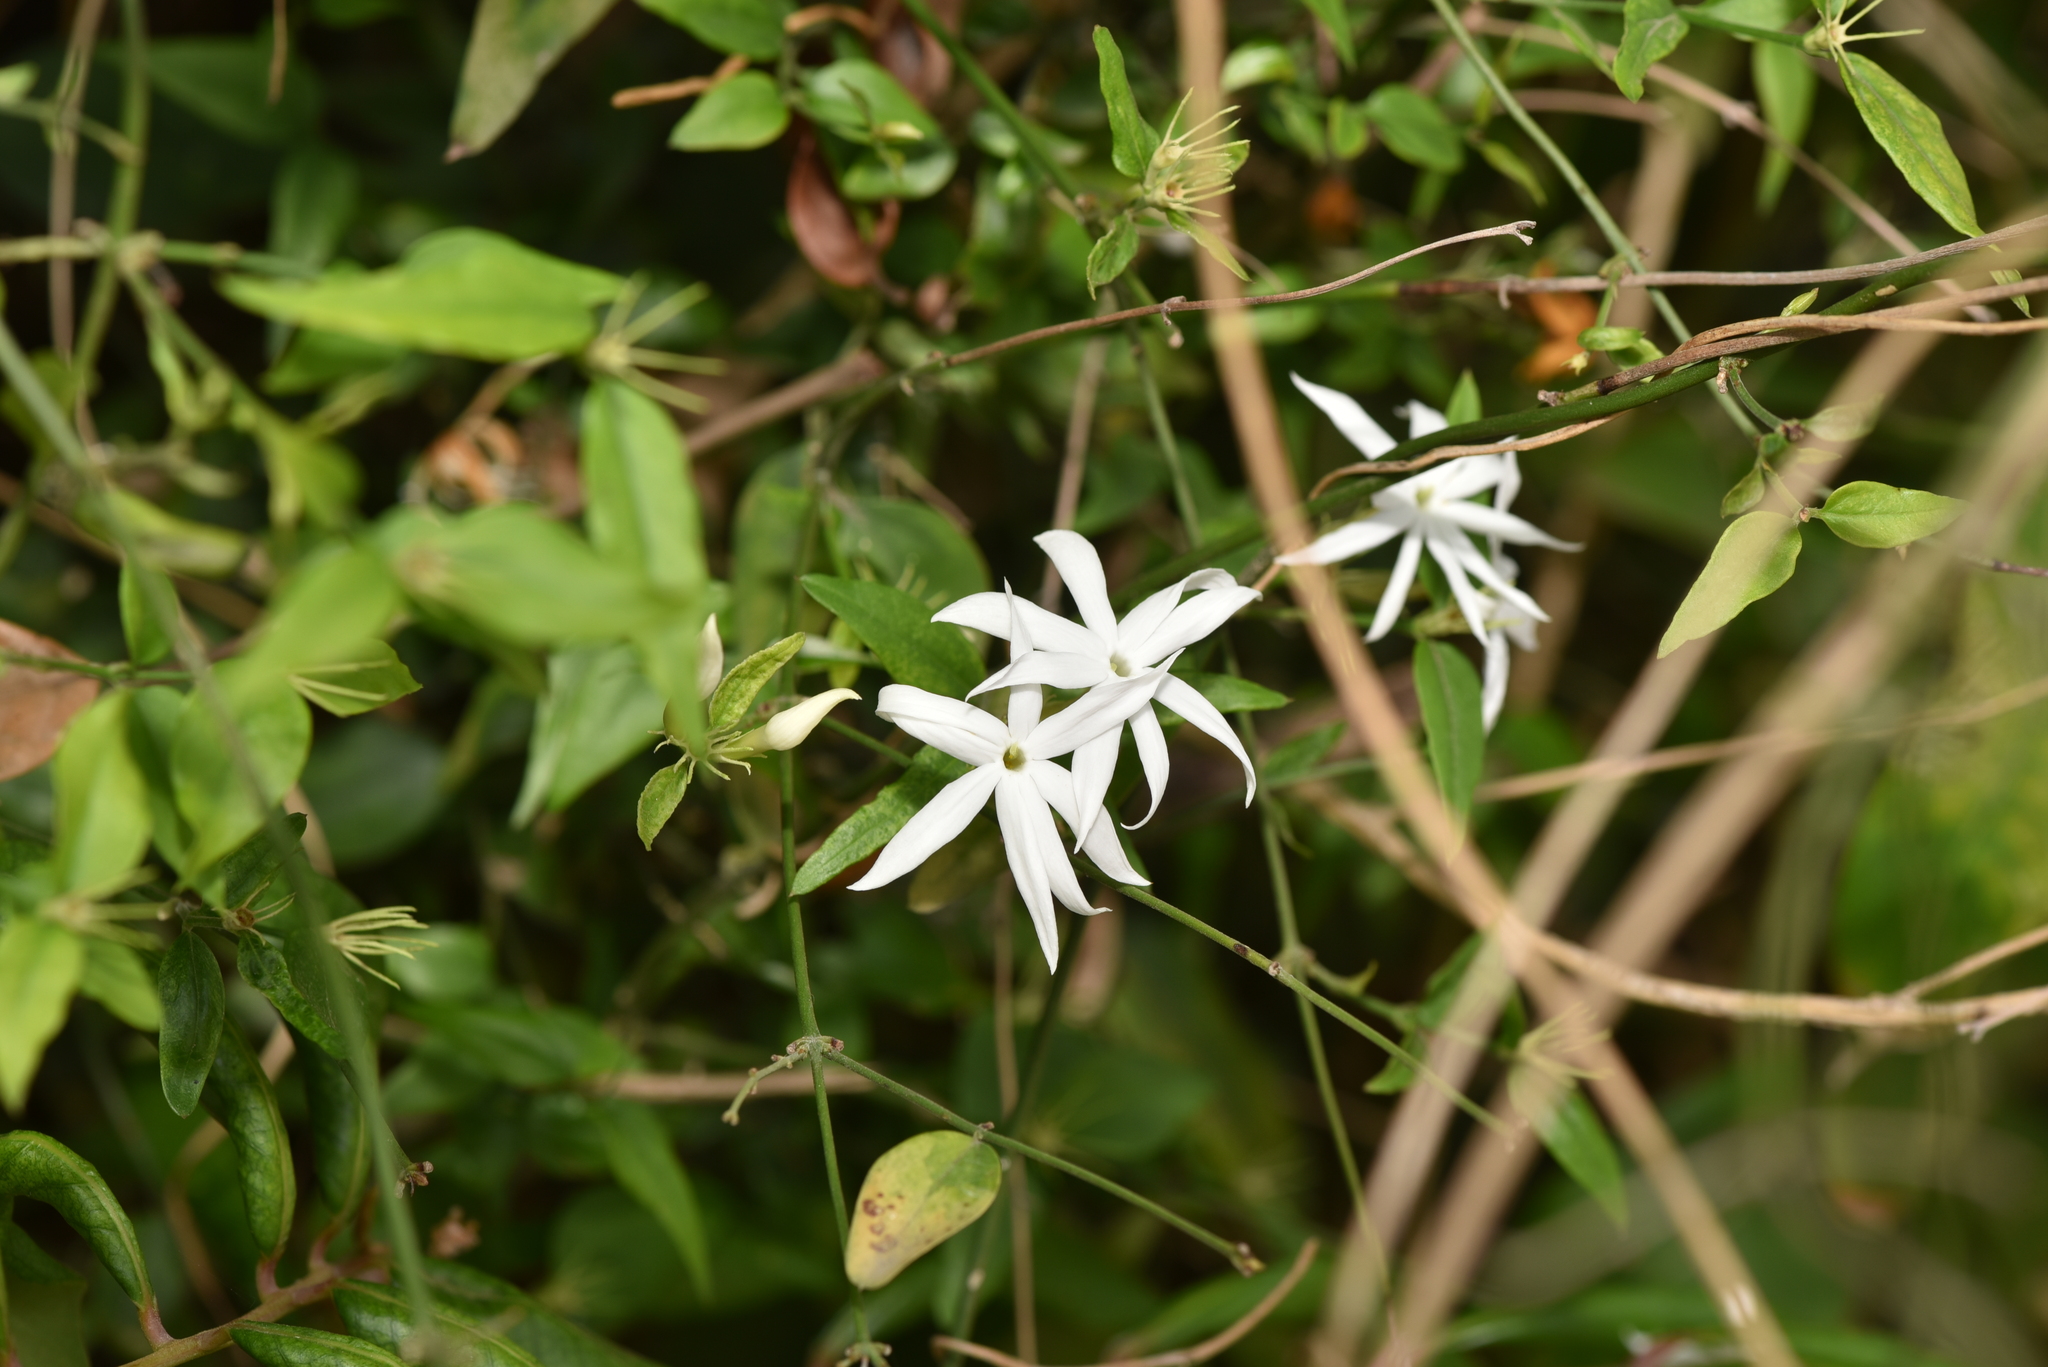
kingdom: Plantae
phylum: Tracheophyta
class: Magnoliopsida
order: Lamiales
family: Oleaceae
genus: Jasminum
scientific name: Jasminum nervosum
